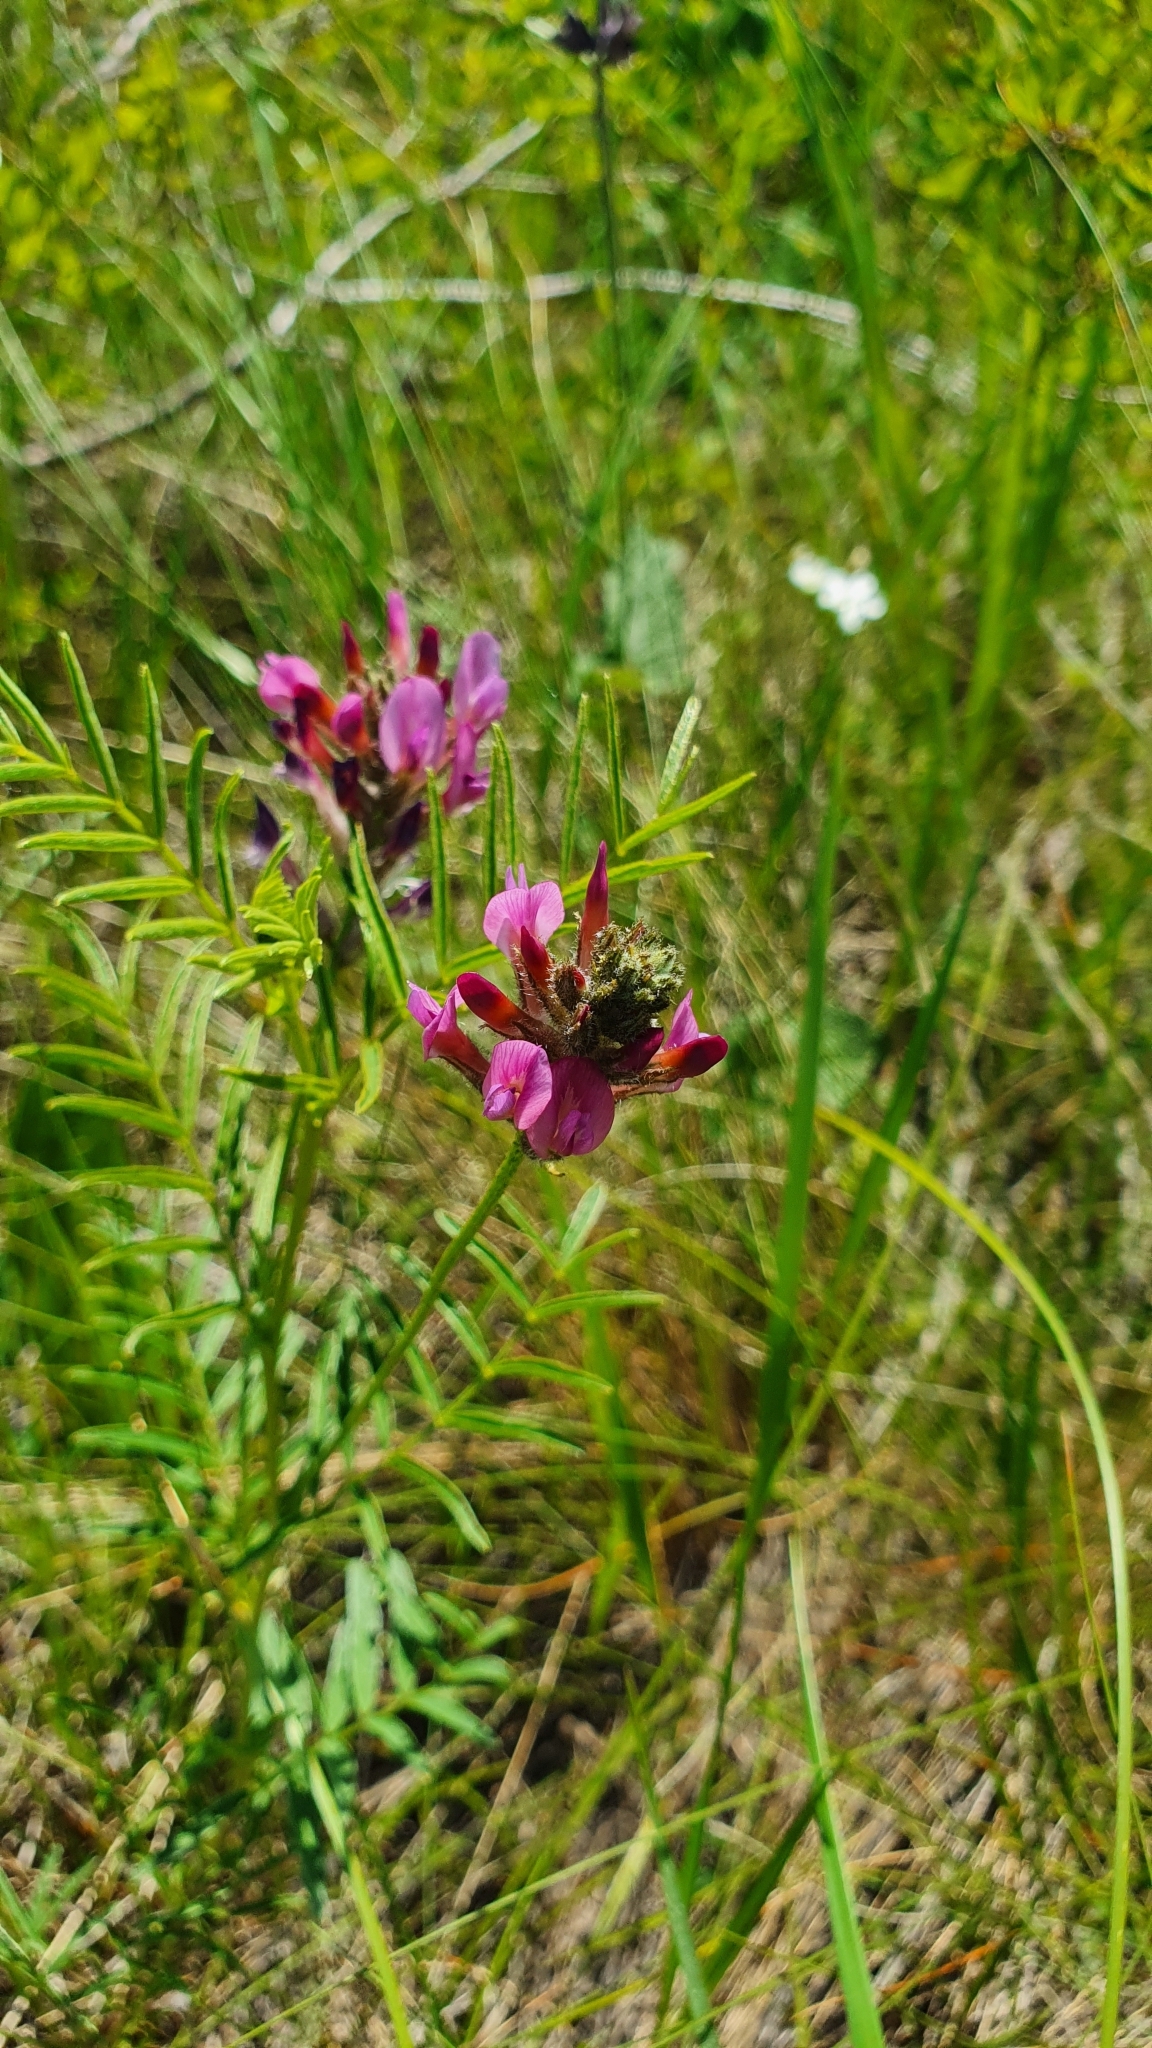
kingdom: Plantae
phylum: Tracheophyta
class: Magnoliopsida
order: Fabales
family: Fabaceae
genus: Astragalus
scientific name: Astragalus cornutus
